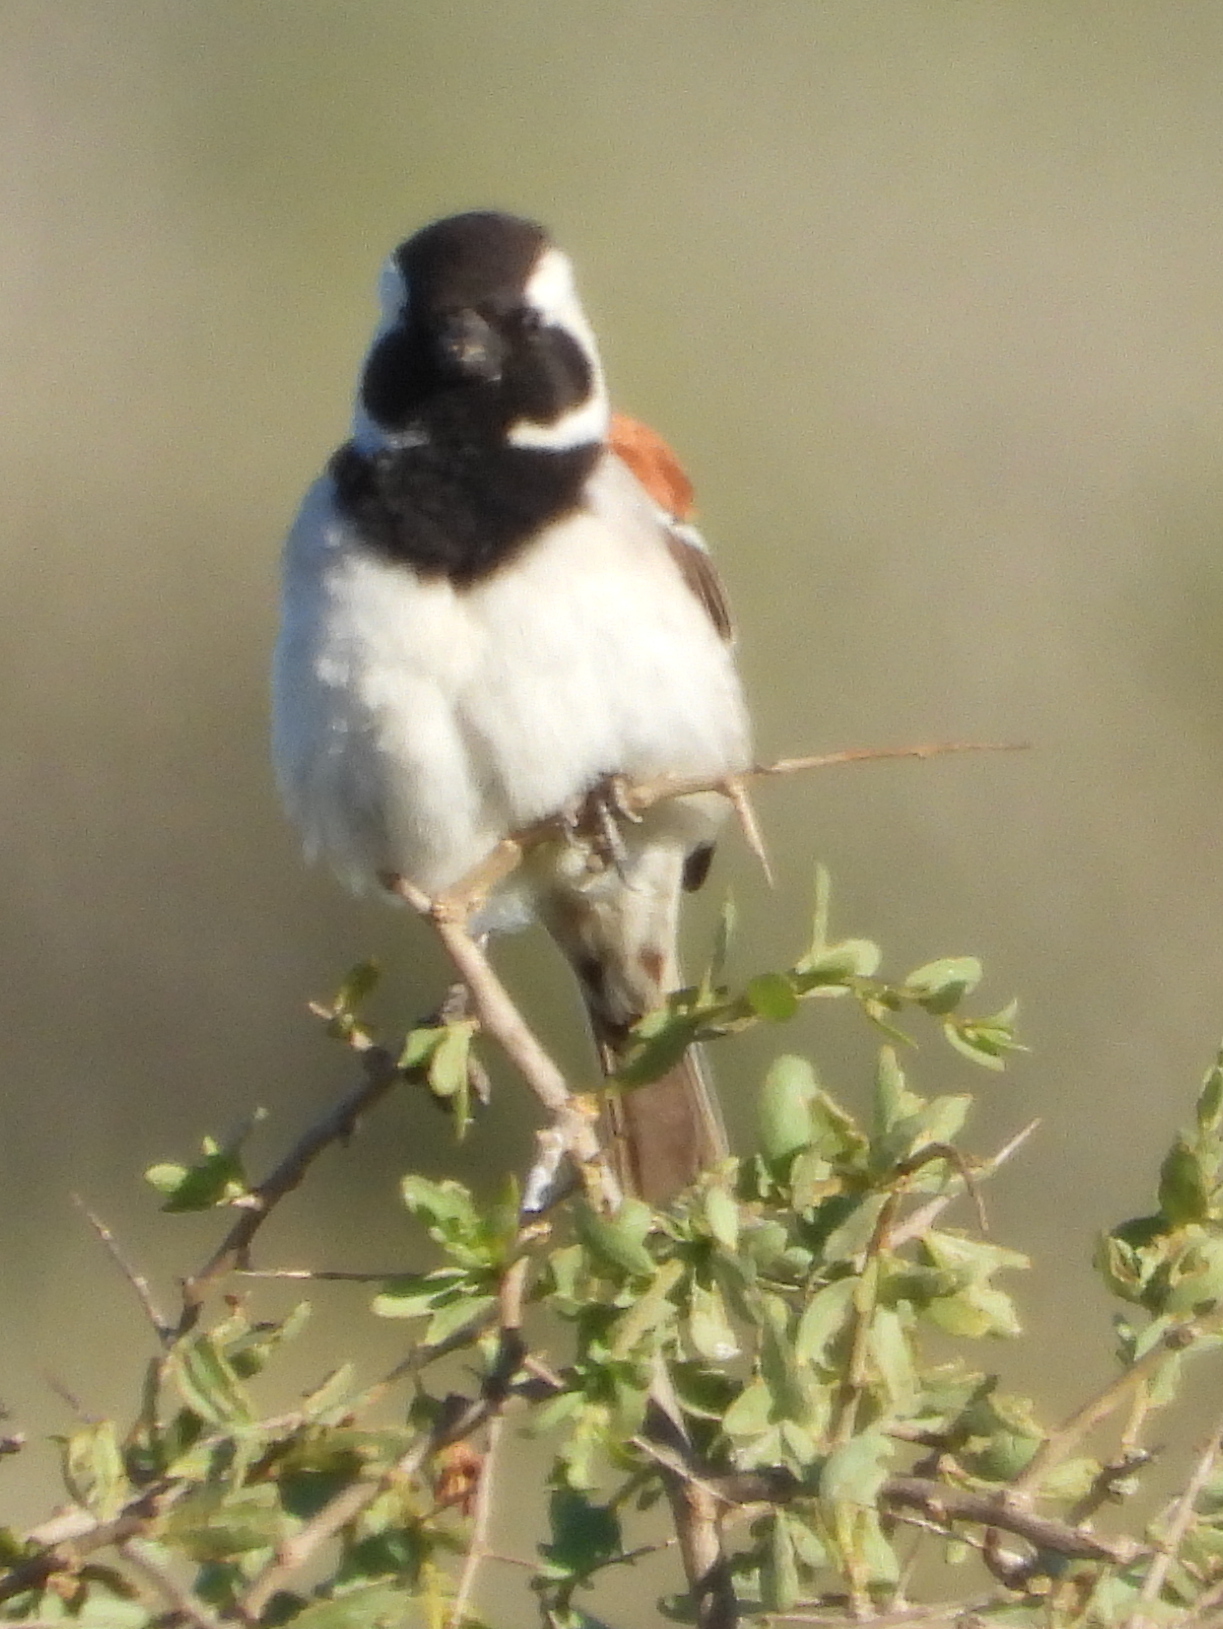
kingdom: Animalia
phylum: Chordata
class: Aves
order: Passeriformes
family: Passeridae
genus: Passer
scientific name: Passer melanurus
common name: Cape sparrow
